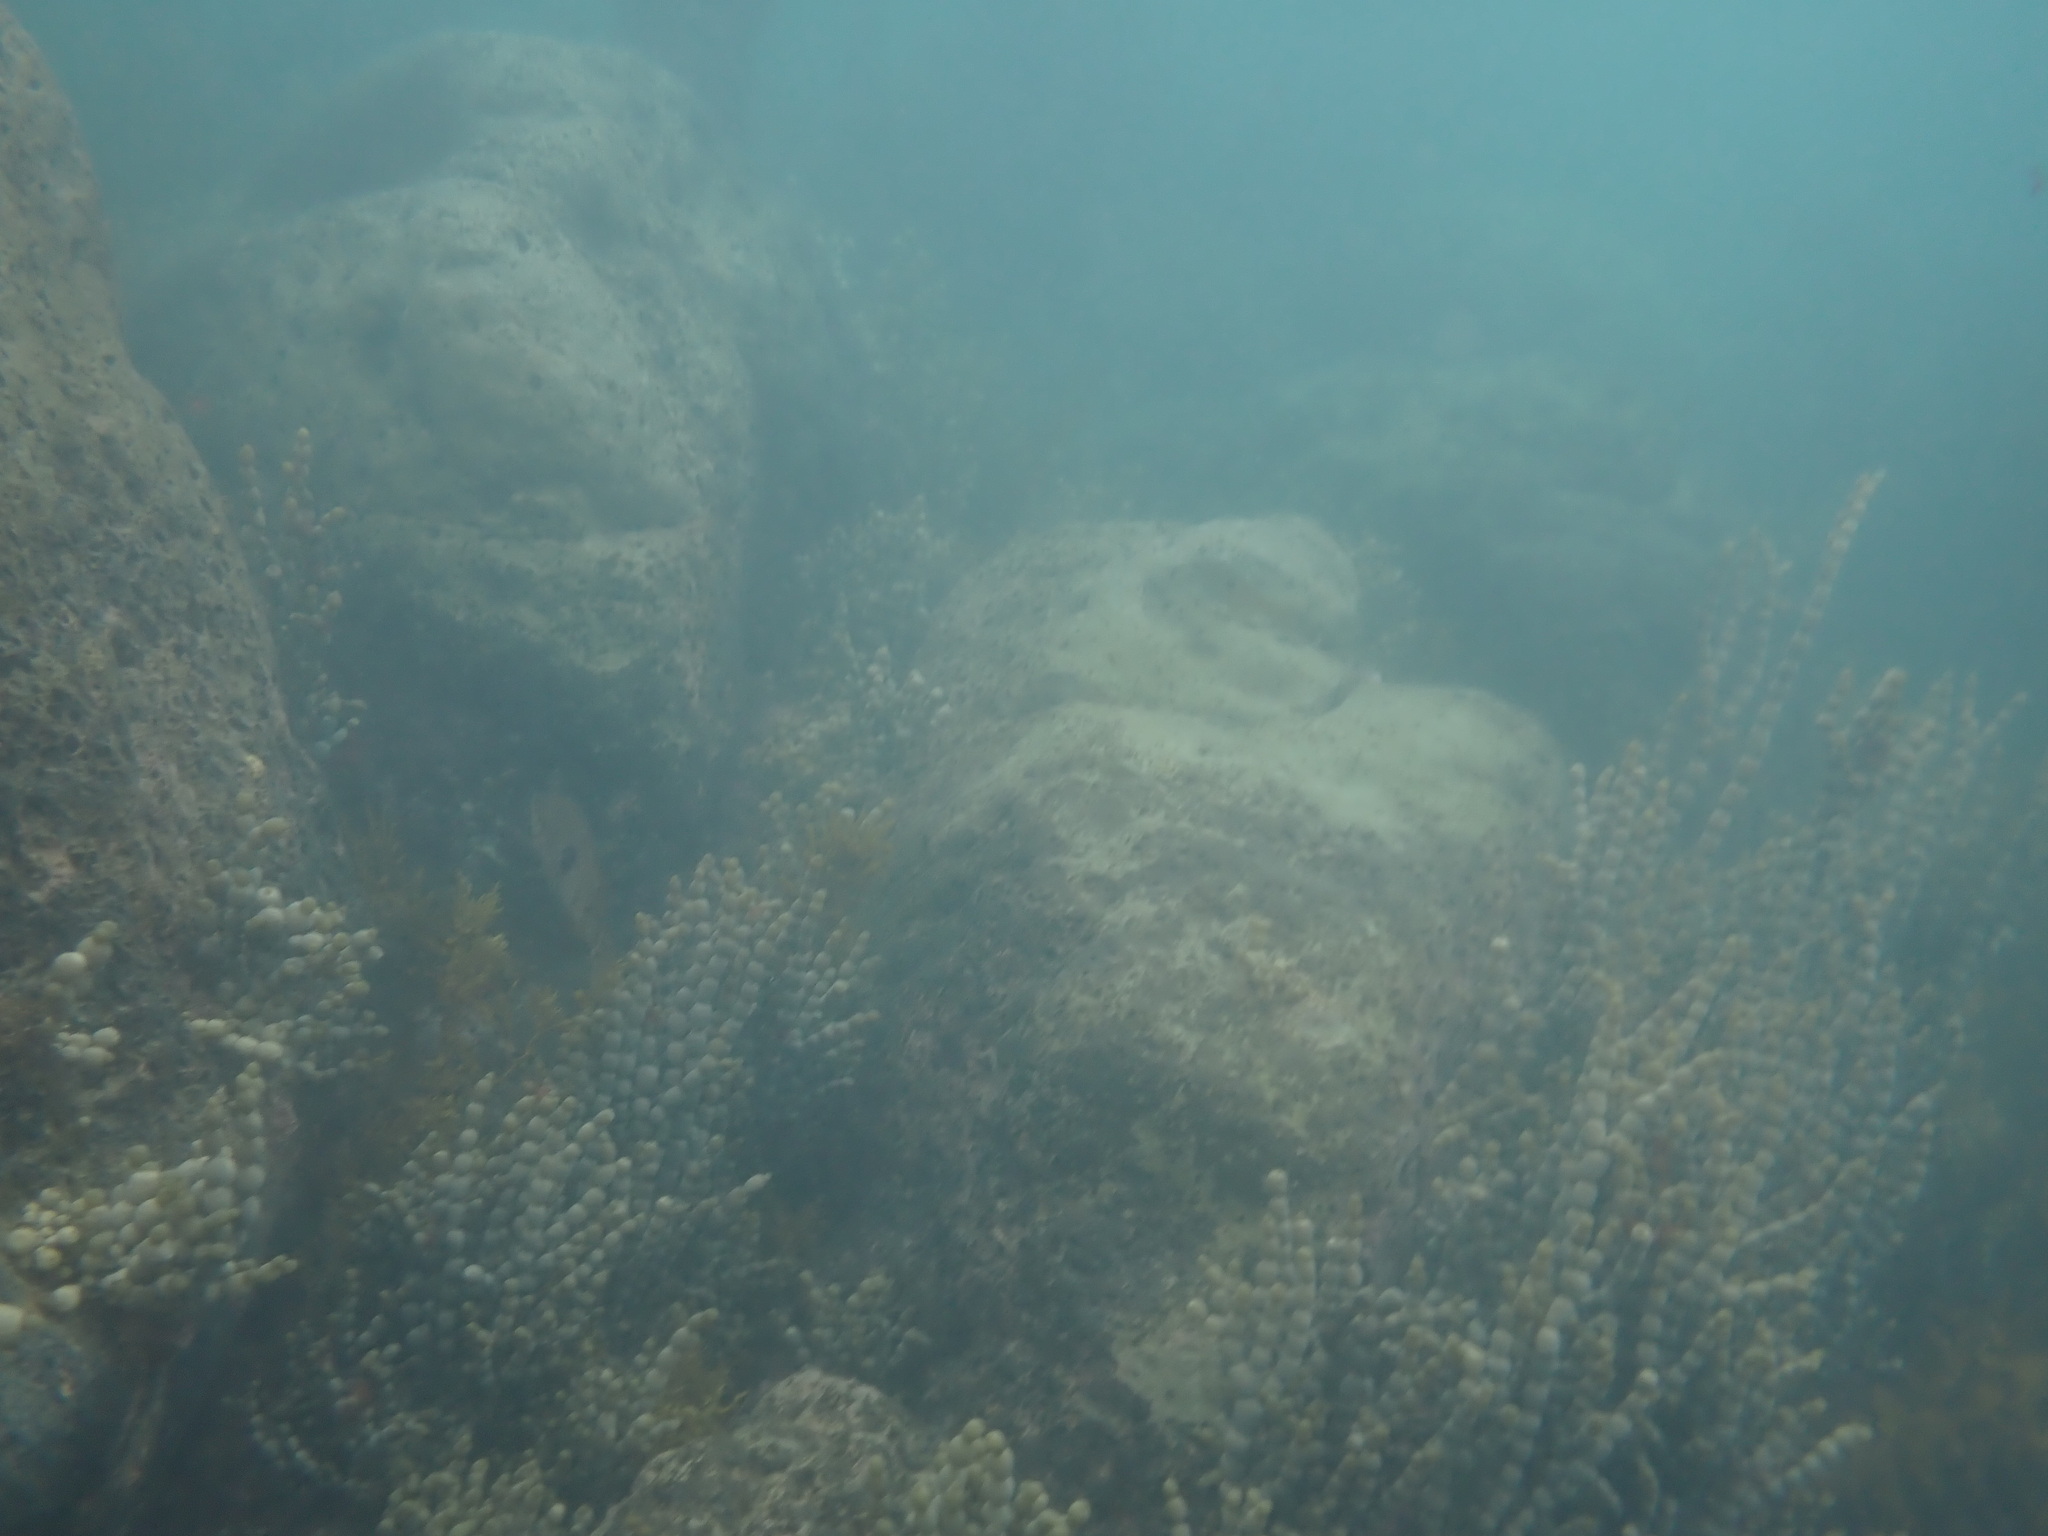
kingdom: Animalia
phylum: Chordata
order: Perciformes
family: Labridae
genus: Notolabrus
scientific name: Notolabrus celidotus
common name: Spotty
